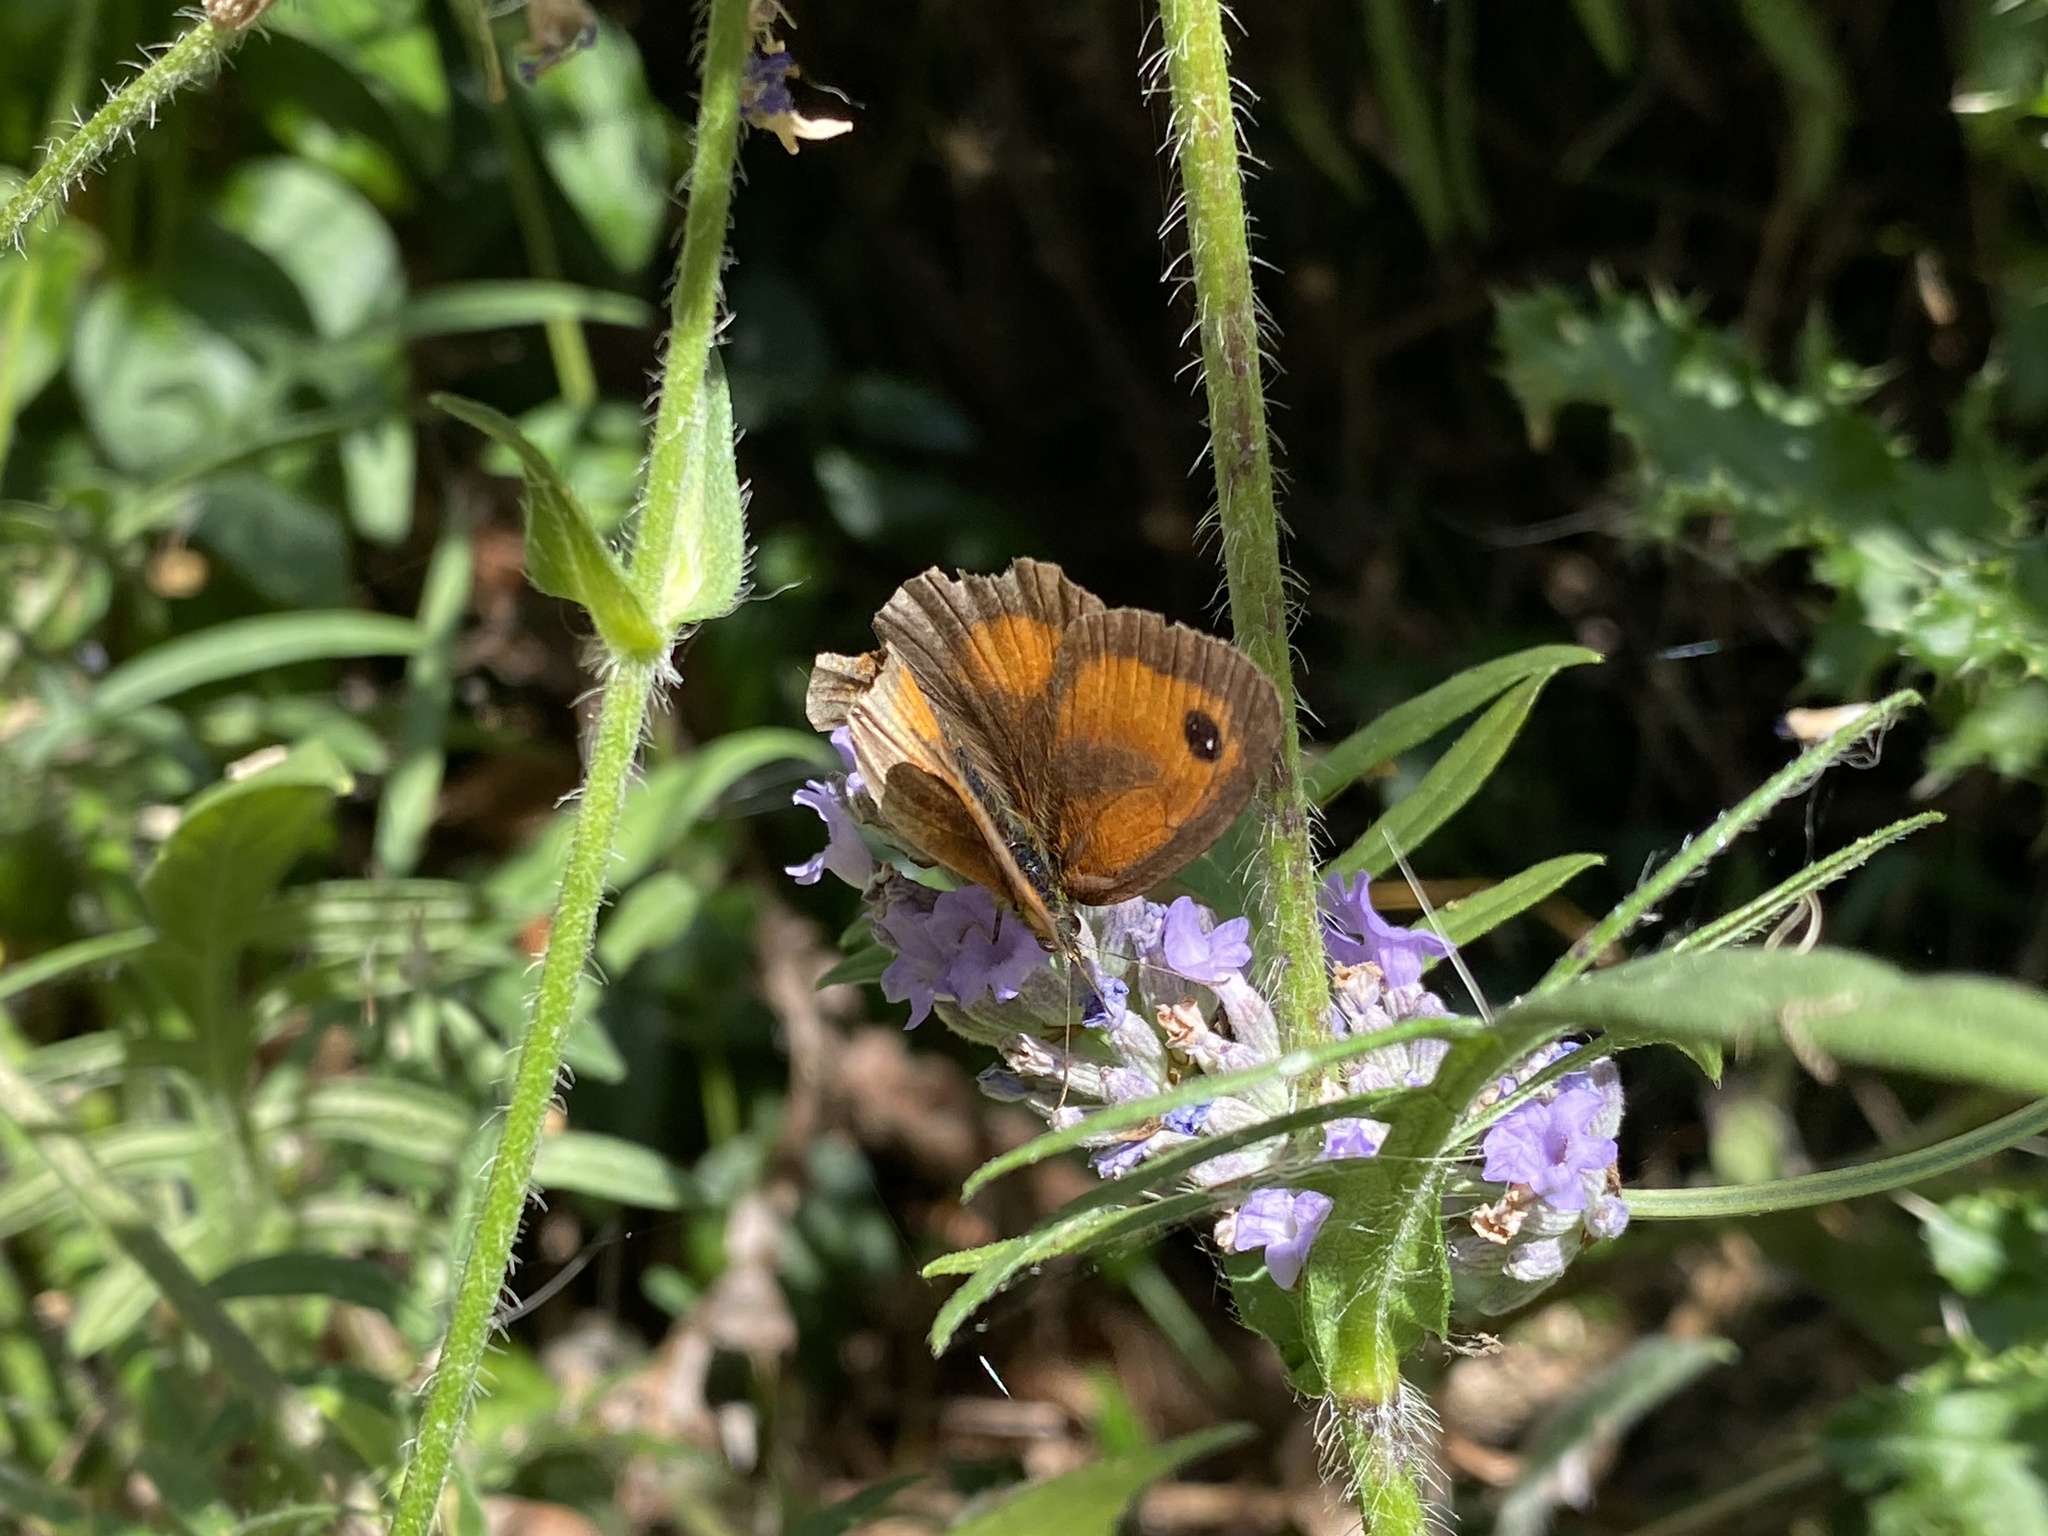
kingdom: Animalia
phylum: Arthropoda
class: Insecta
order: Lepidoptera
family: Nymphalidae
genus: Pyronia
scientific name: Pyronia tithonus
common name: Gatekeeper
